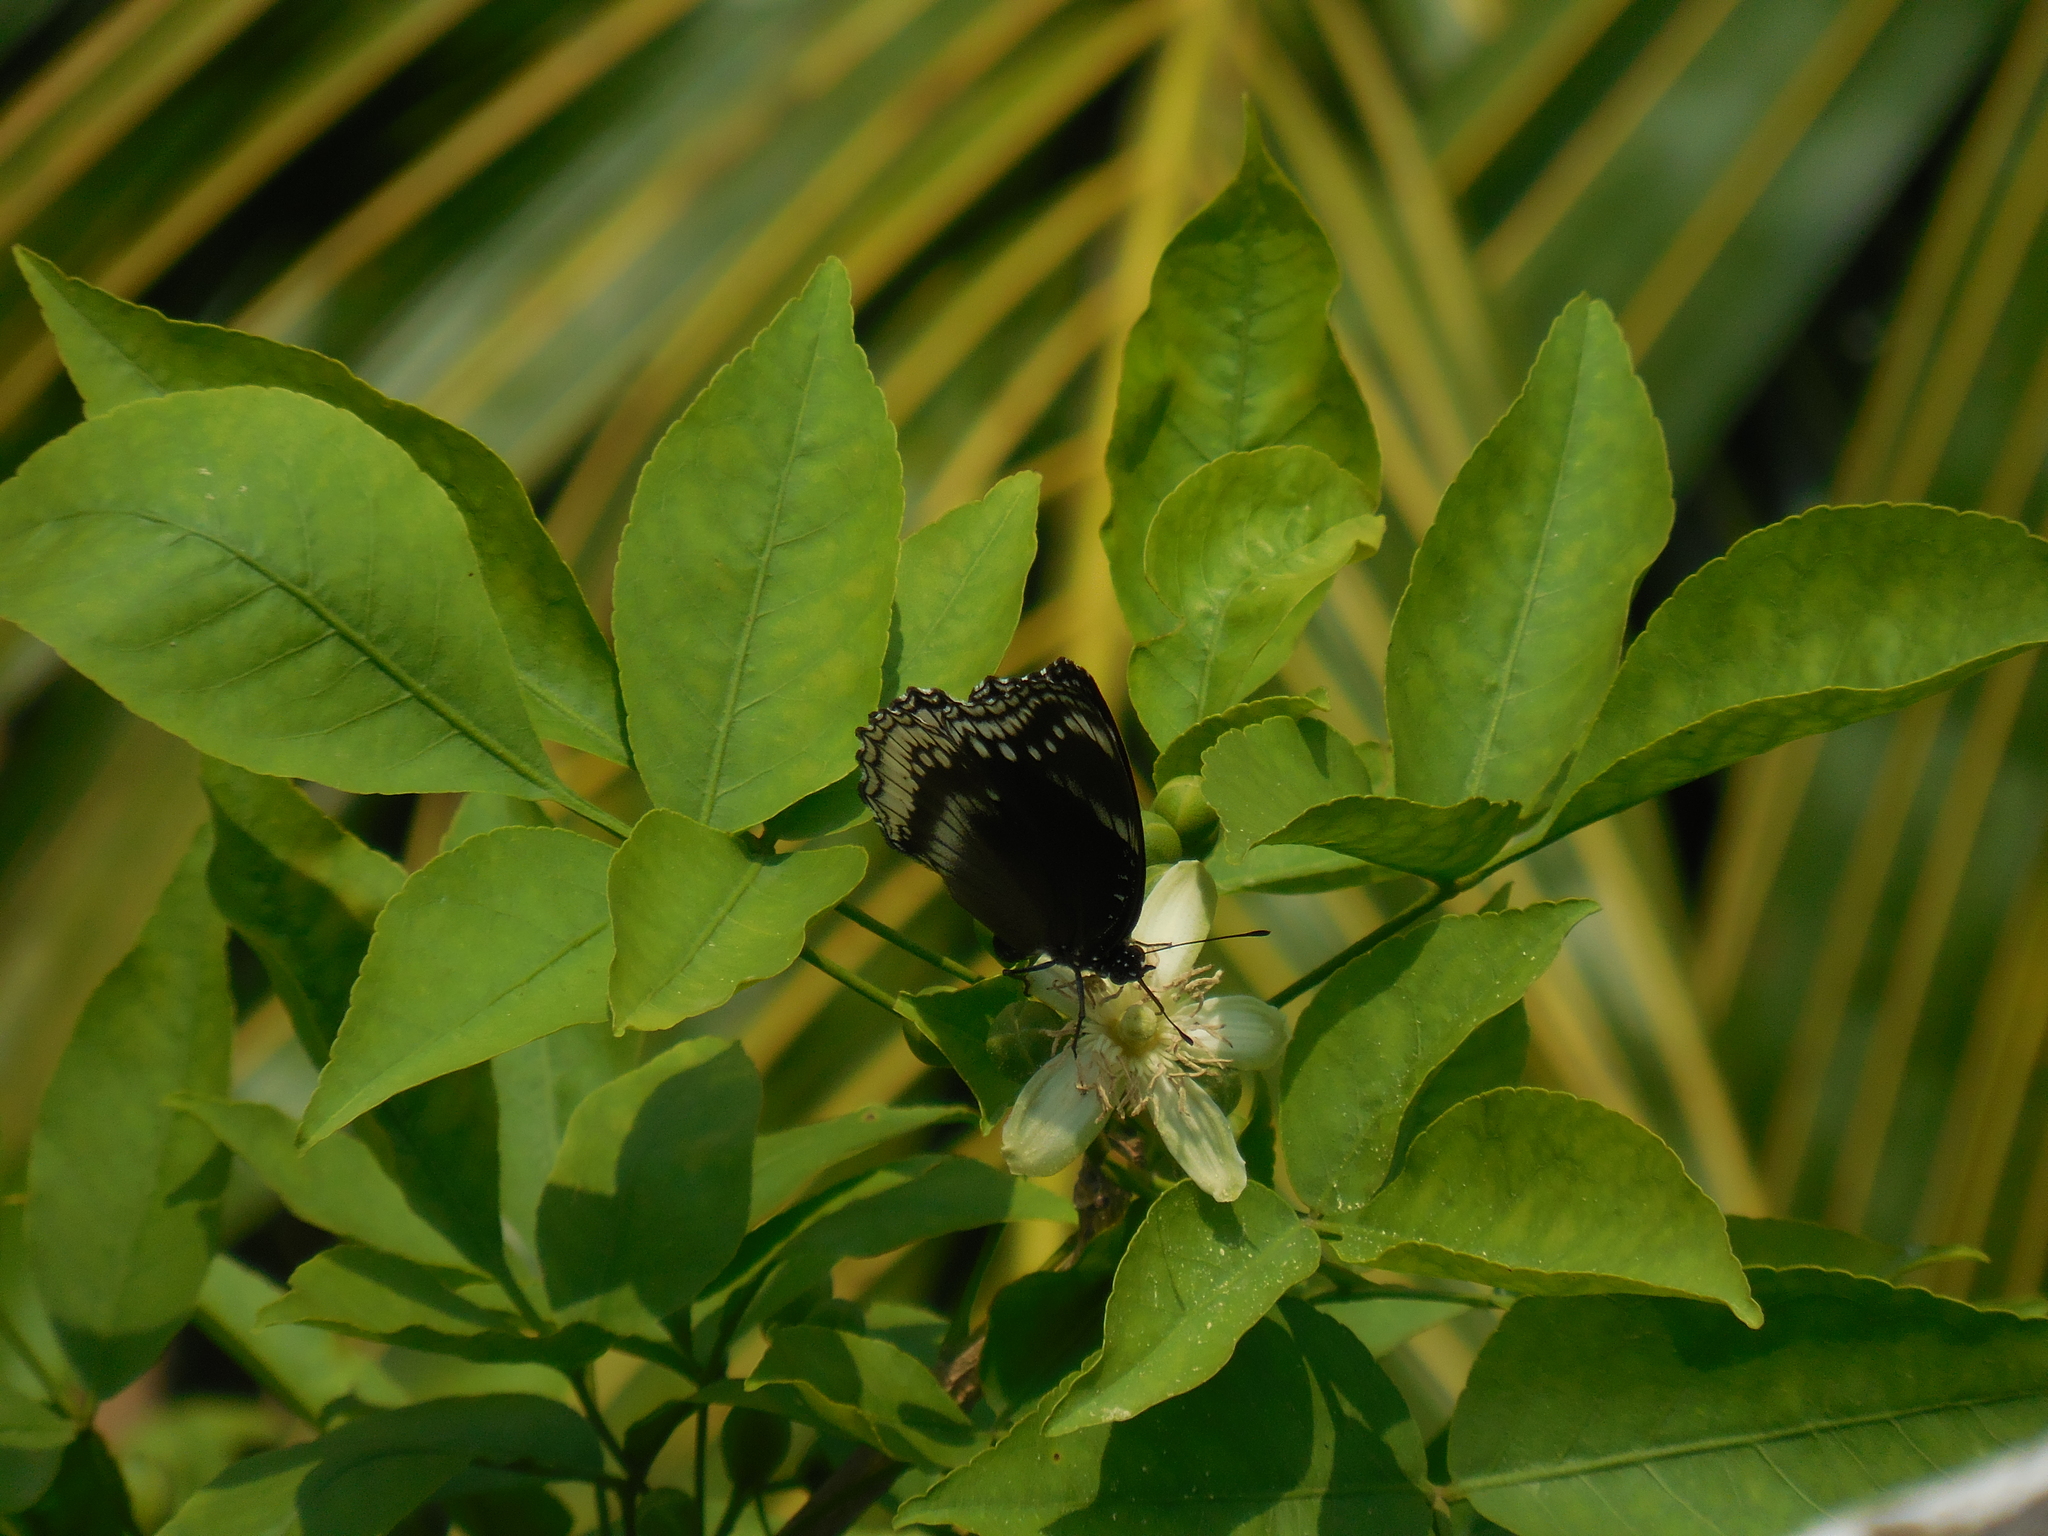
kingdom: Animalia
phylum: Arthropoda
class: Insecta
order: Lepidoptera
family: Nymphalidae
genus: Hypolimnas
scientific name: Hypolimnas bolina
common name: Great eggfly
